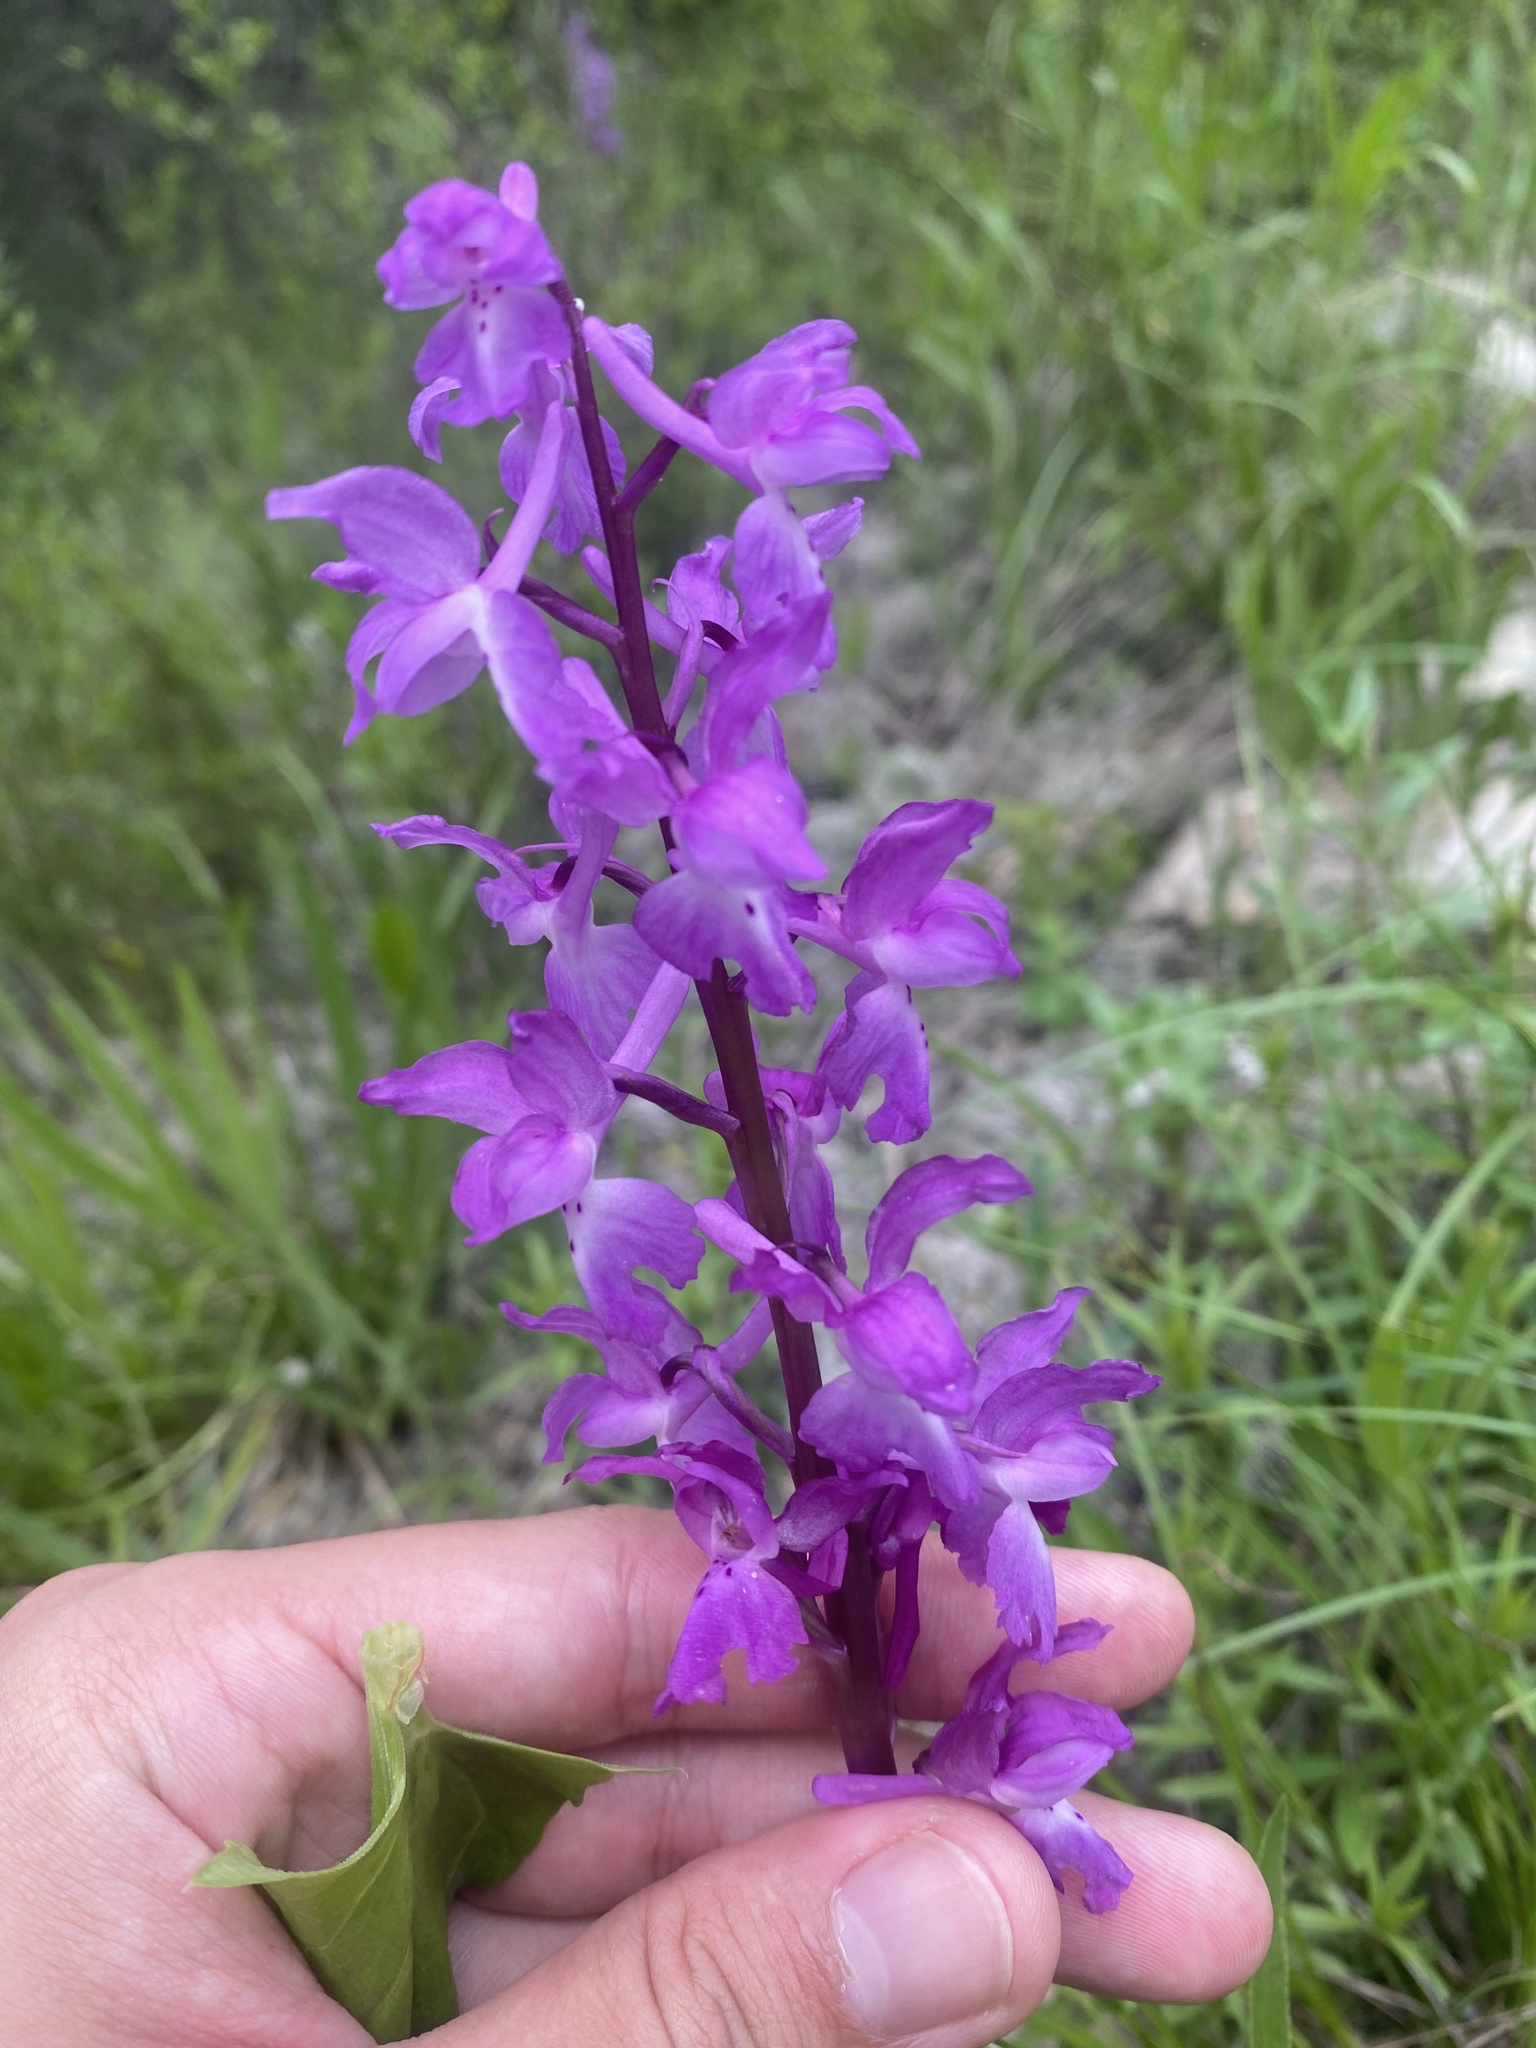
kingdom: Plantae
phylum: Tracheophyta
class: Liliopsida
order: Asparagales
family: Orchidaceae
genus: Orchis
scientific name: Orchis mascula
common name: Early-purple orchid
